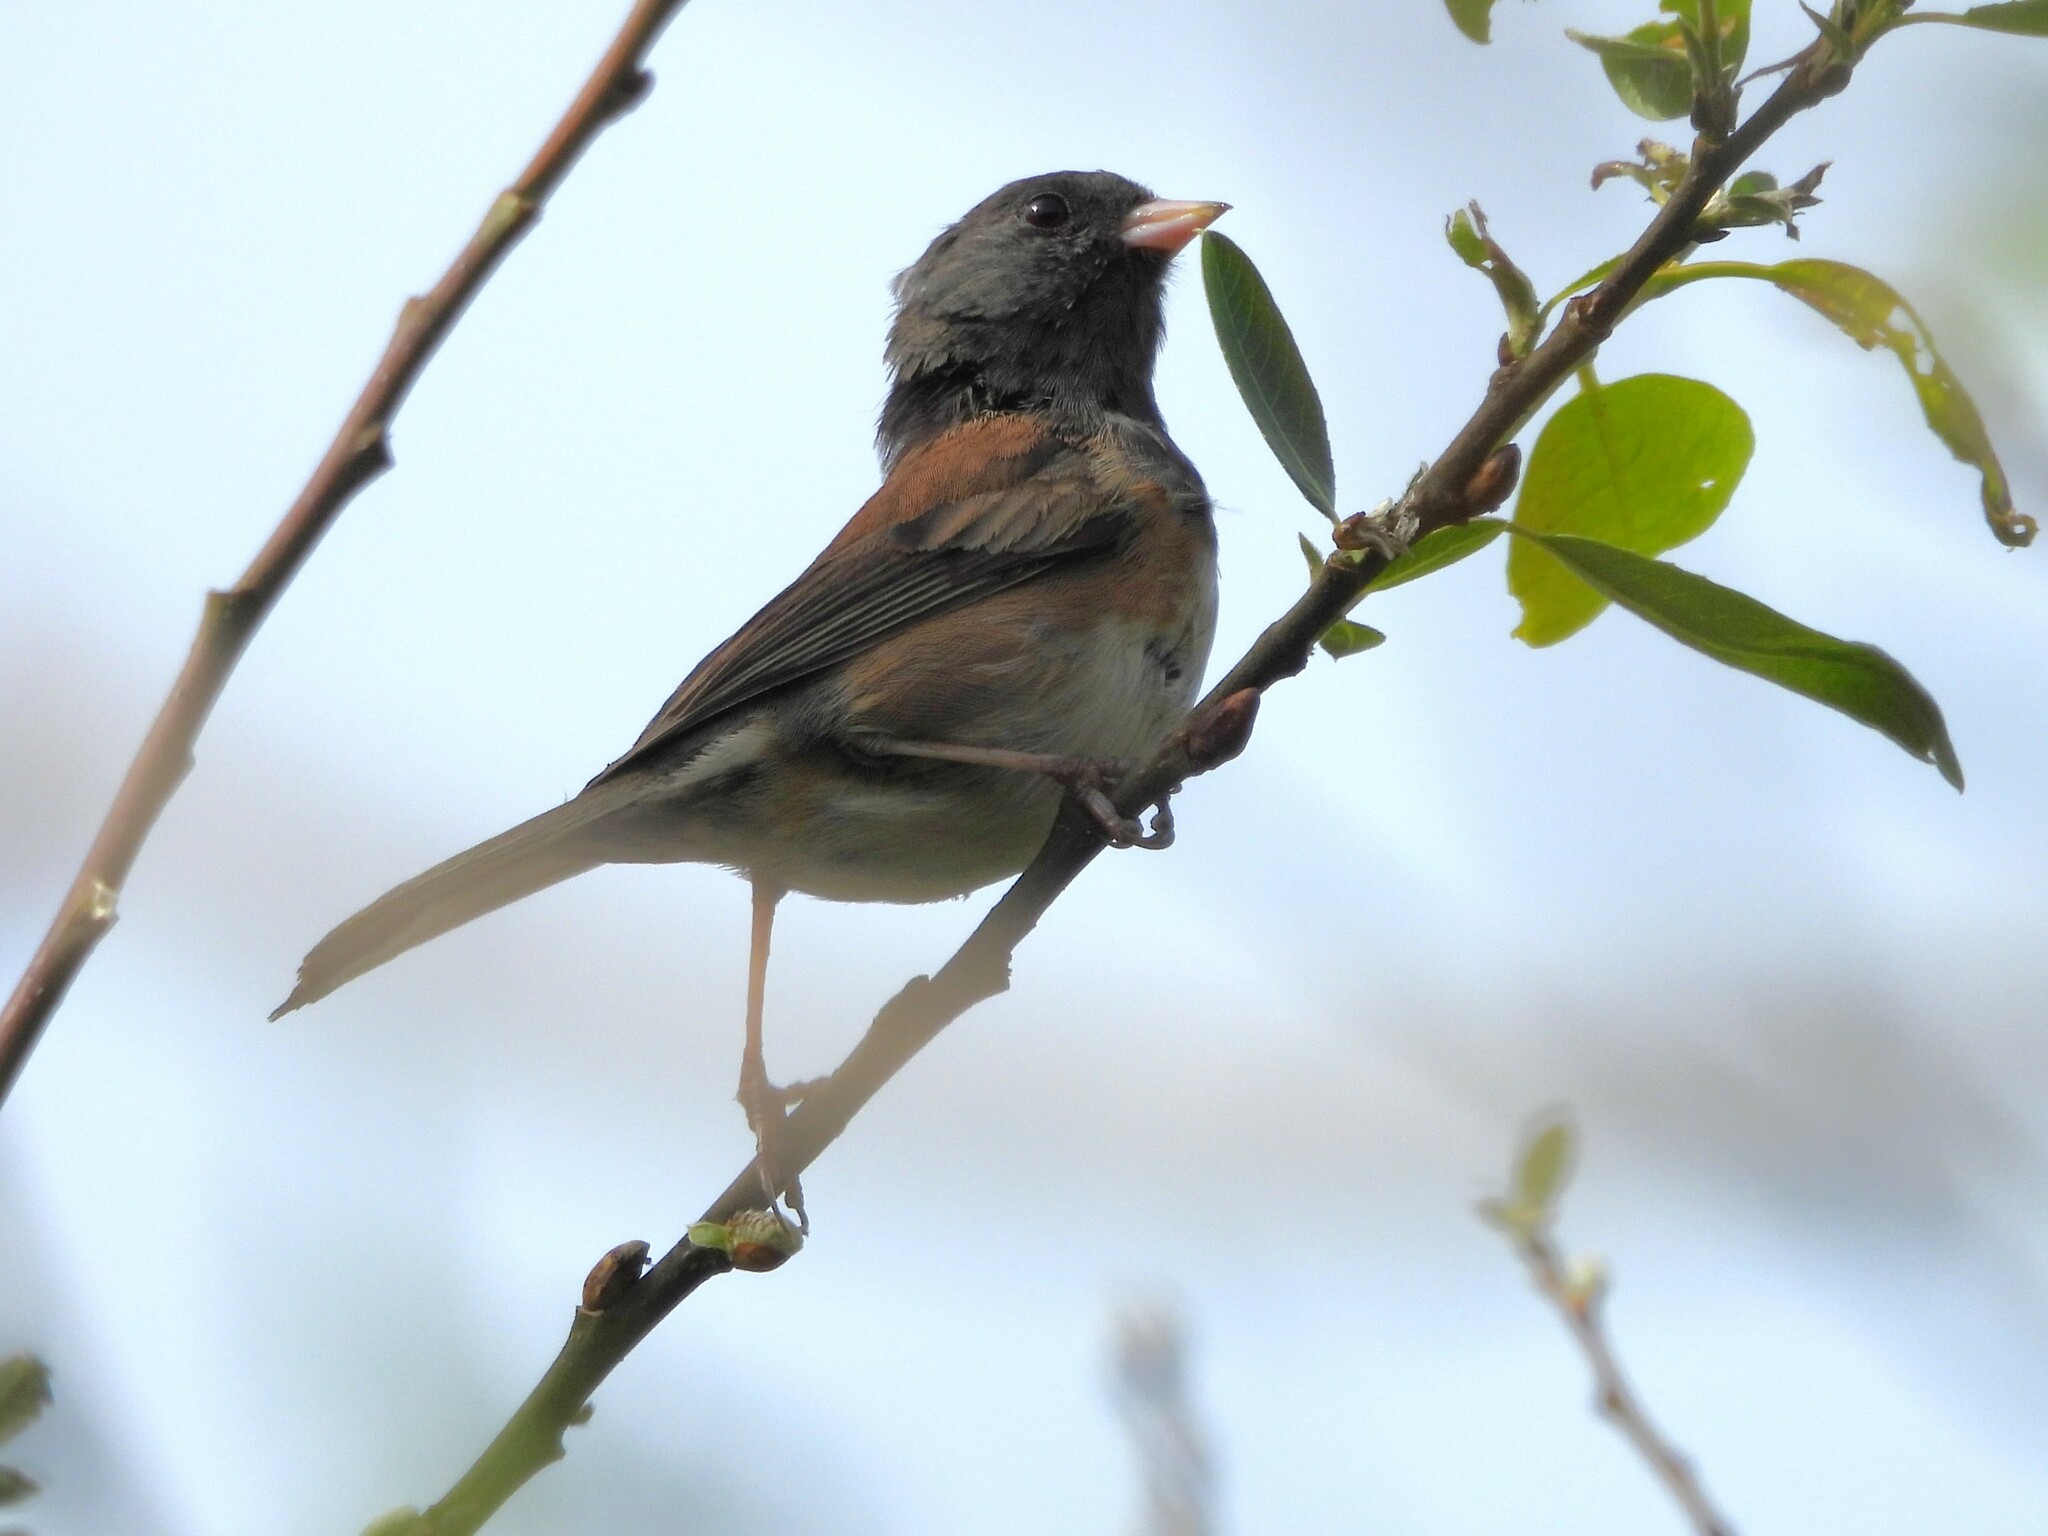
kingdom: Animalia
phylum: Chordata
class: Aves
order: Passeriformes
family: Passerellidae
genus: Junco
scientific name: Junco hyemalis
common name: Dark-eyed junco
